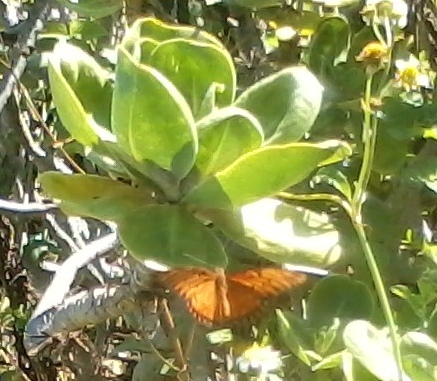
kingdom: Animalia
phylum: Arthropoda
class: Insecta
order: Lepidoptera
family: Nymphalidae
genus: Dione
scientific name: Dione vanillae
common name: Gulf fritillary
